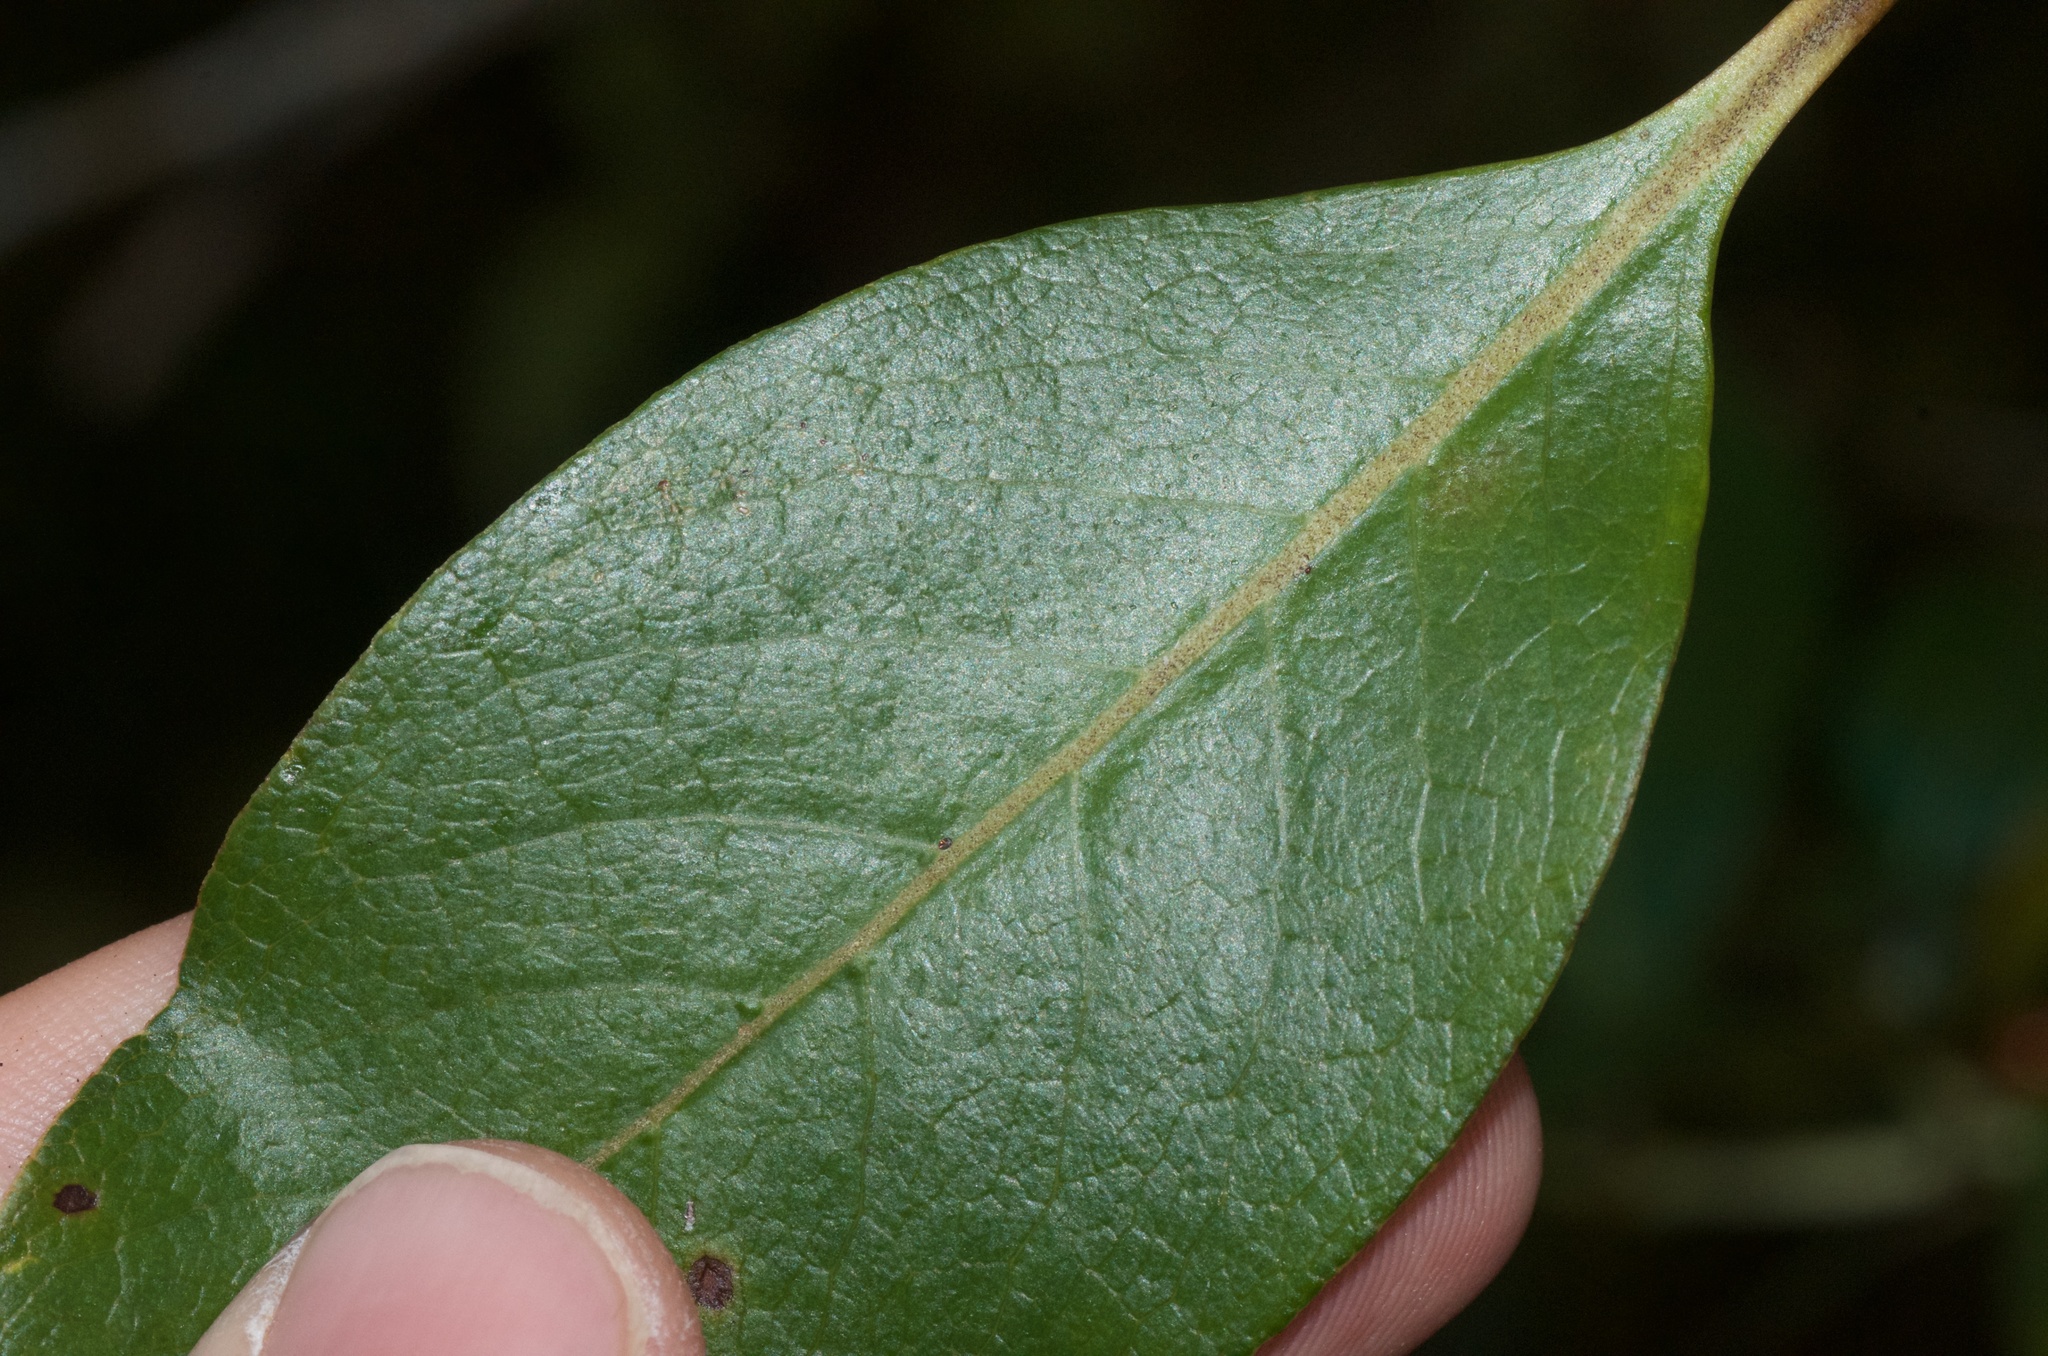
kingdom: Plantae
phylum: Tracheophyta
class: Magnoliopsida
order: Gentianales
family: Rubiaceae
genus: Coprosma
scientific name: Coprosma robusta
